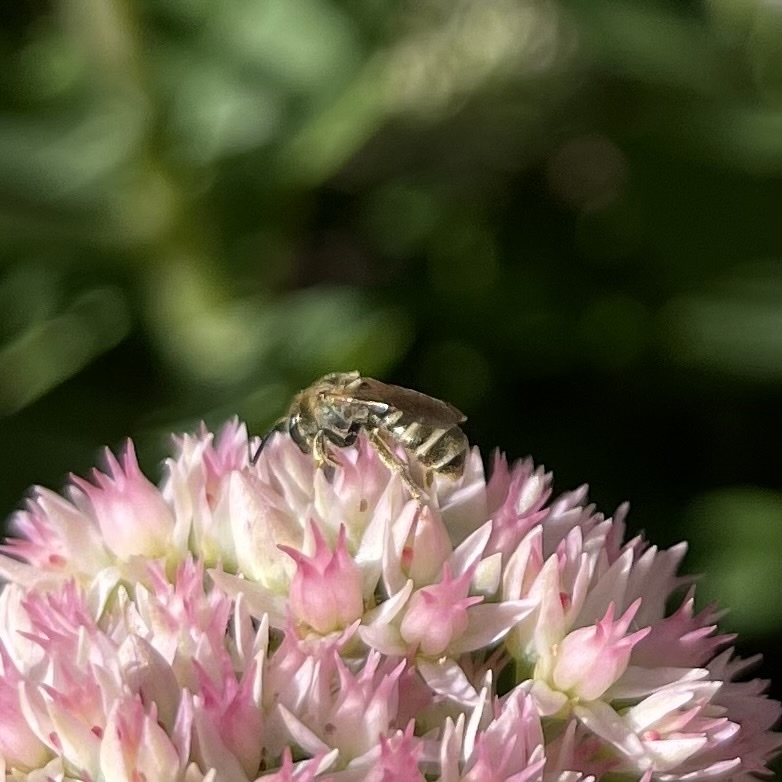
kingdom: Animalia
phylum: Arthropoda
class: Insecta
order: Hymenoptera
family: Halictidae
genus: Halictus
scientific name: Halictus confusus
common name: Southern bronze furrow bee
